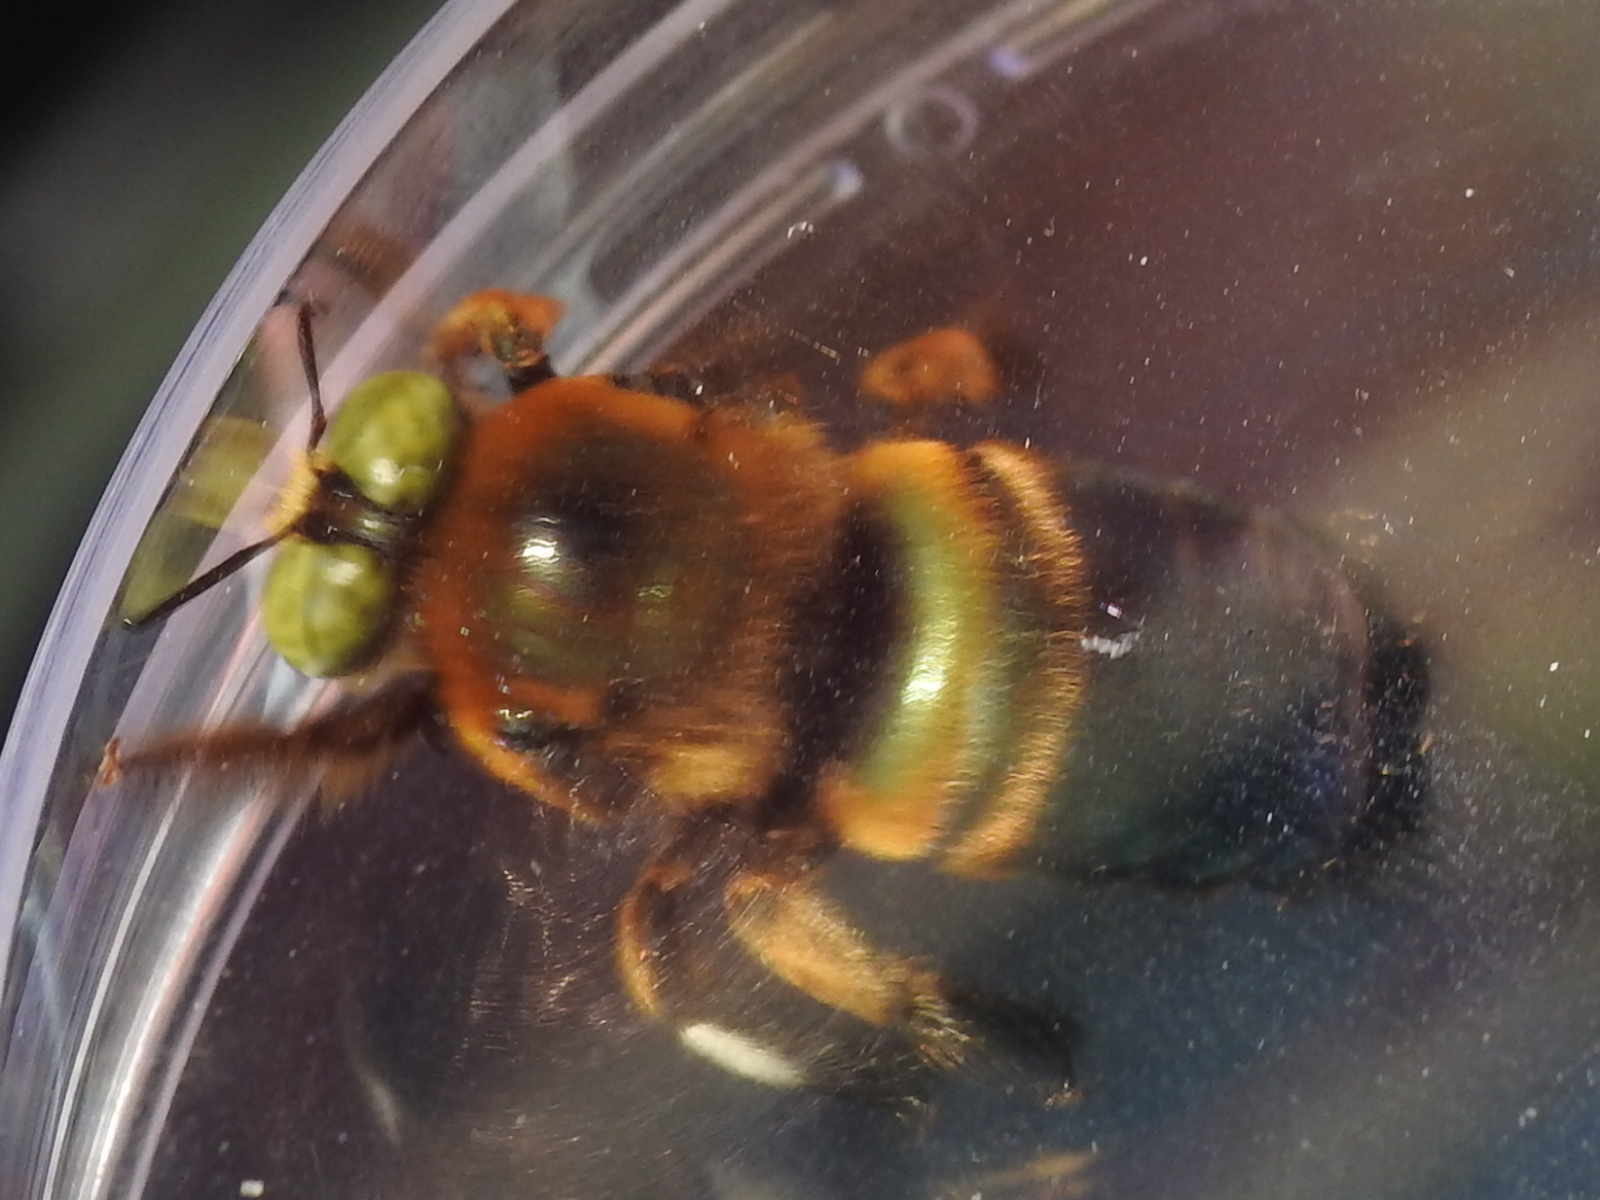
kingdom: Animalia
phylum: Arthropoda
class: Insecta
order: Hymenoptera
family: Apidae
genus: Xylocopa
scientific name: Xylocopa micans
